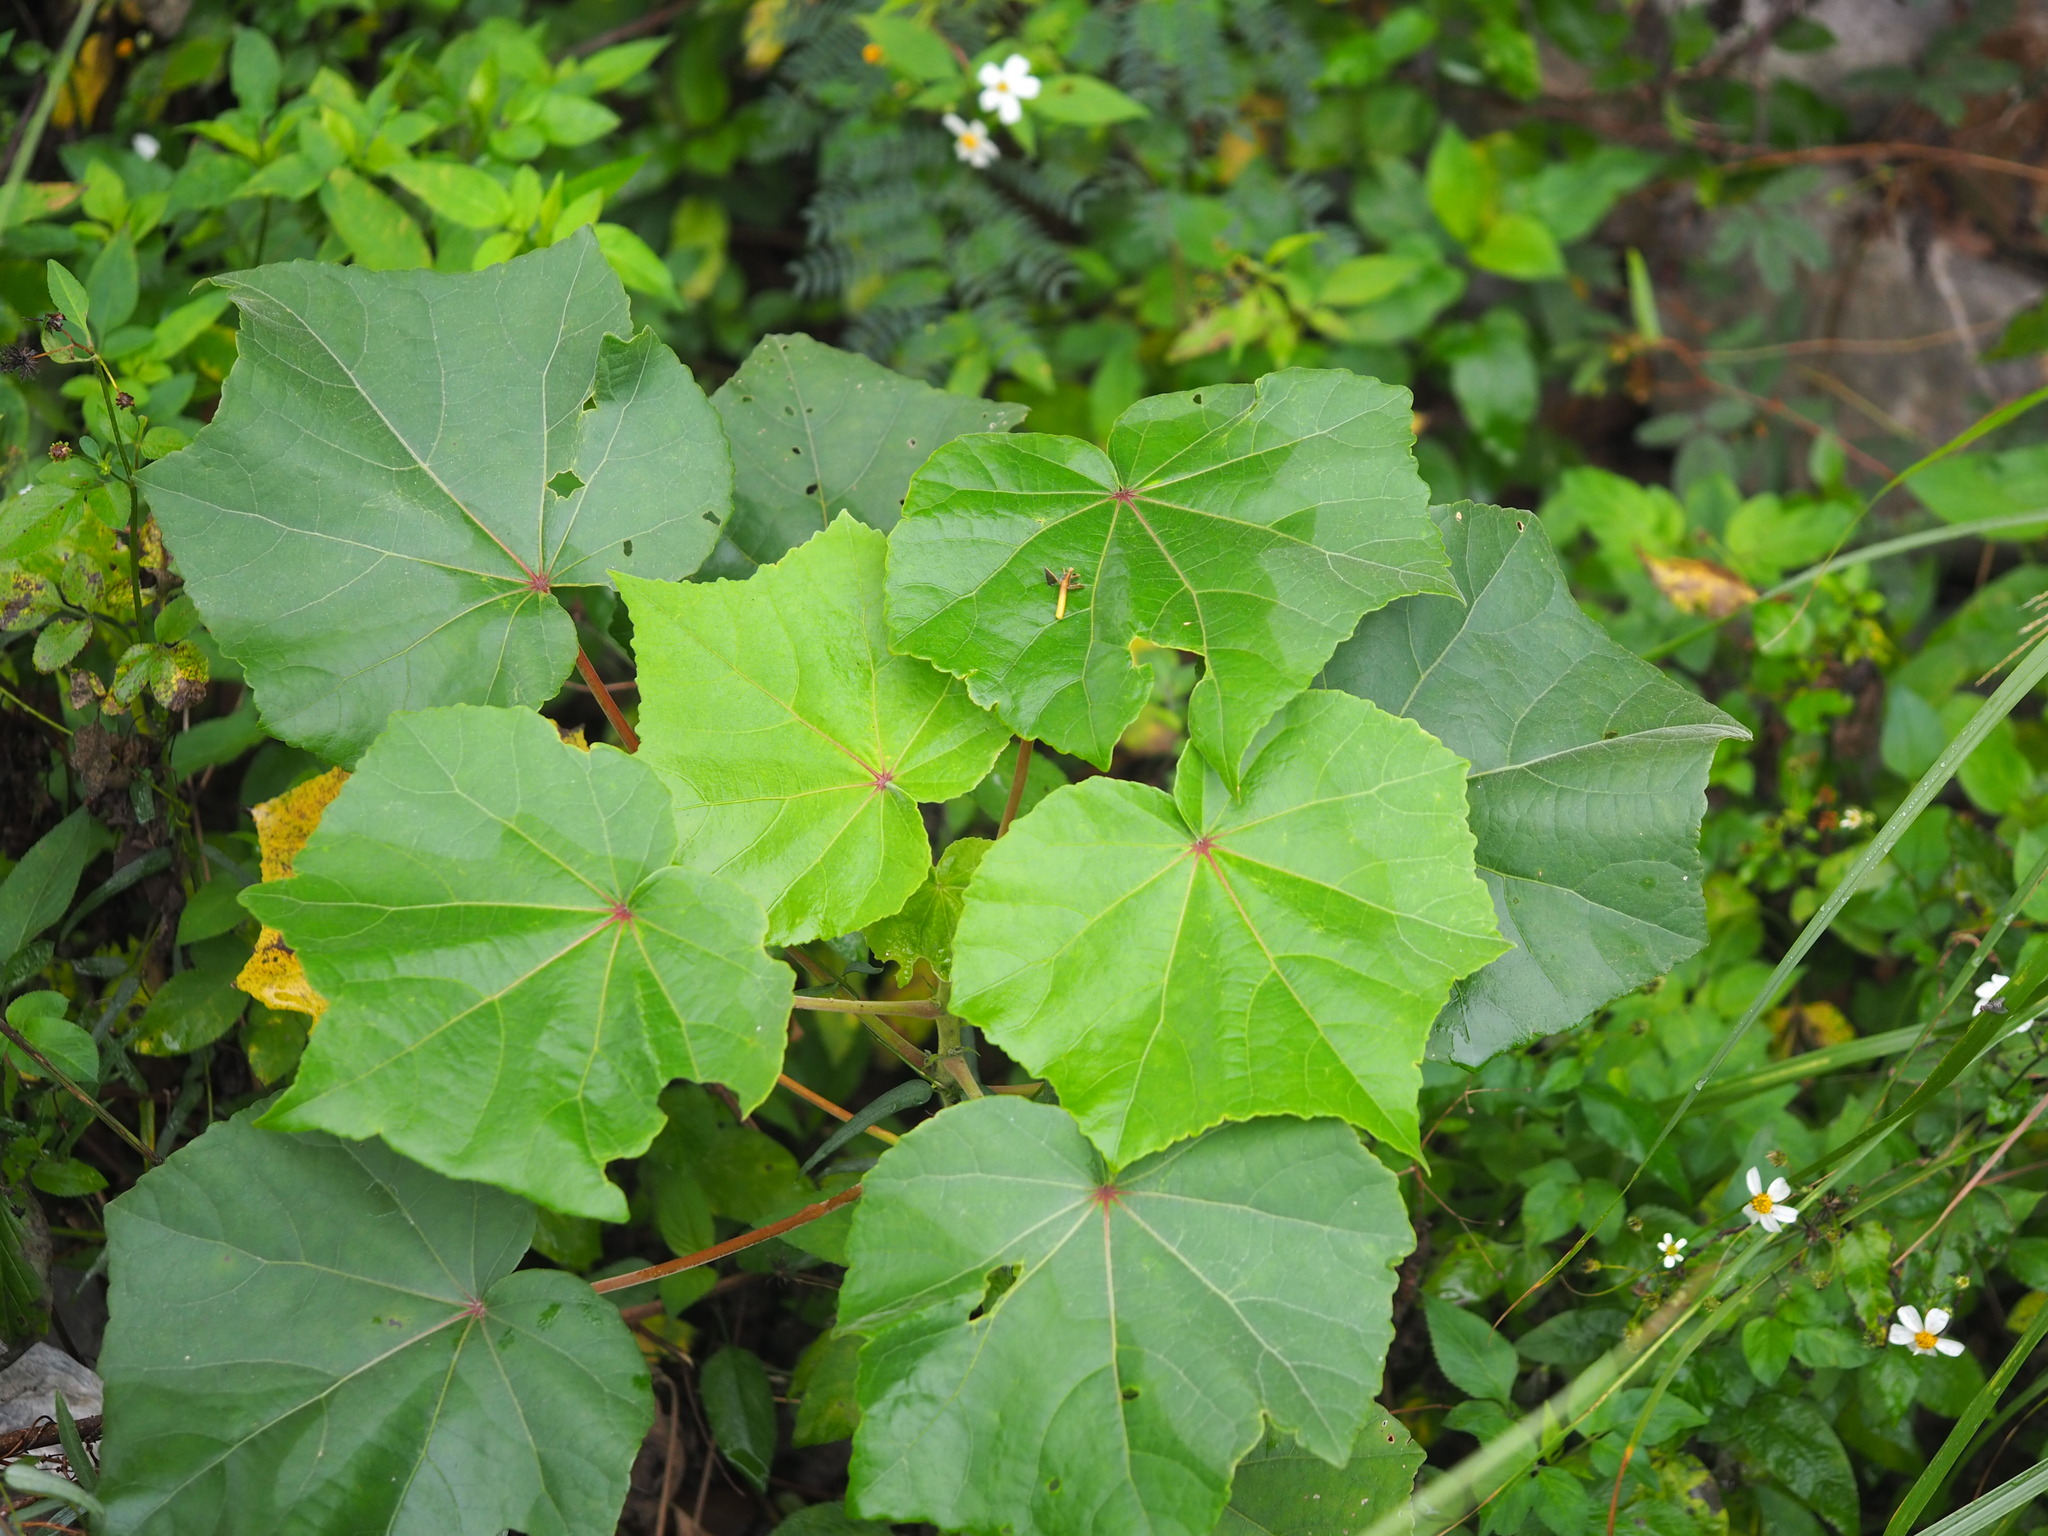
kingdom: Plantae
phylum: Tracheophyta
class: Magnoliopsida
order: Malvales
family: Malvaceae
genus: Hibiscus
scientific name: Hibiscus taiwanensis
